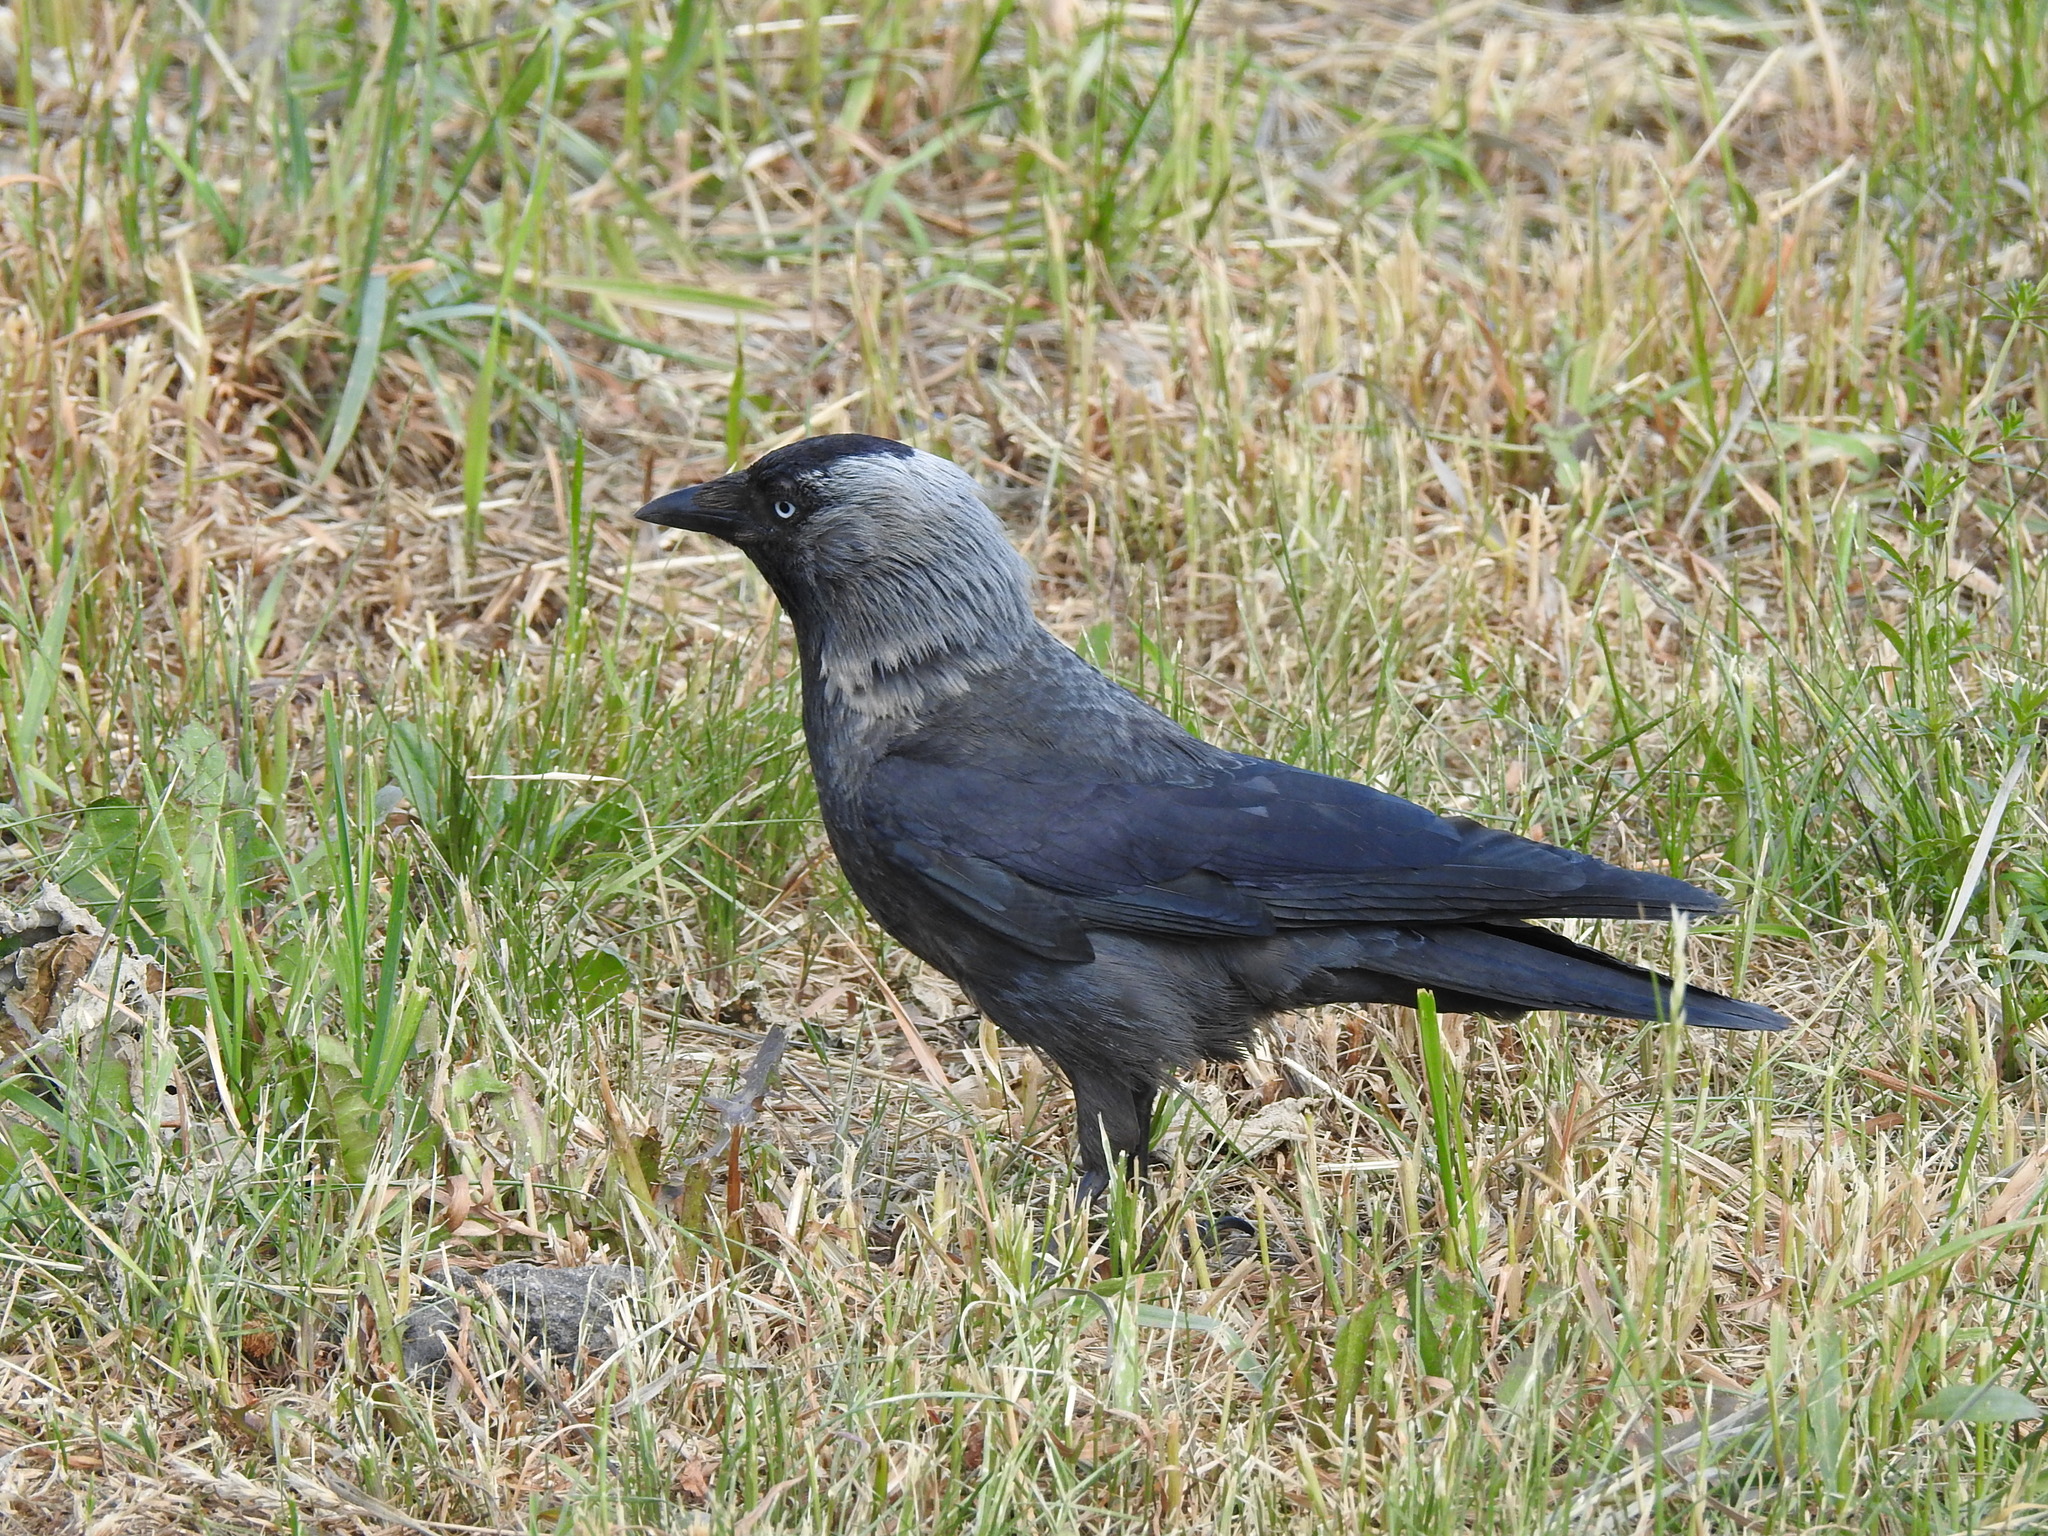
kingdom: Animalia
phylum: Chordata
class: Aves
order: Passeriformes
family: Corvidae
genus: Coloeus
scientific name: Coloeus monedula
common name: Western jackdaw
